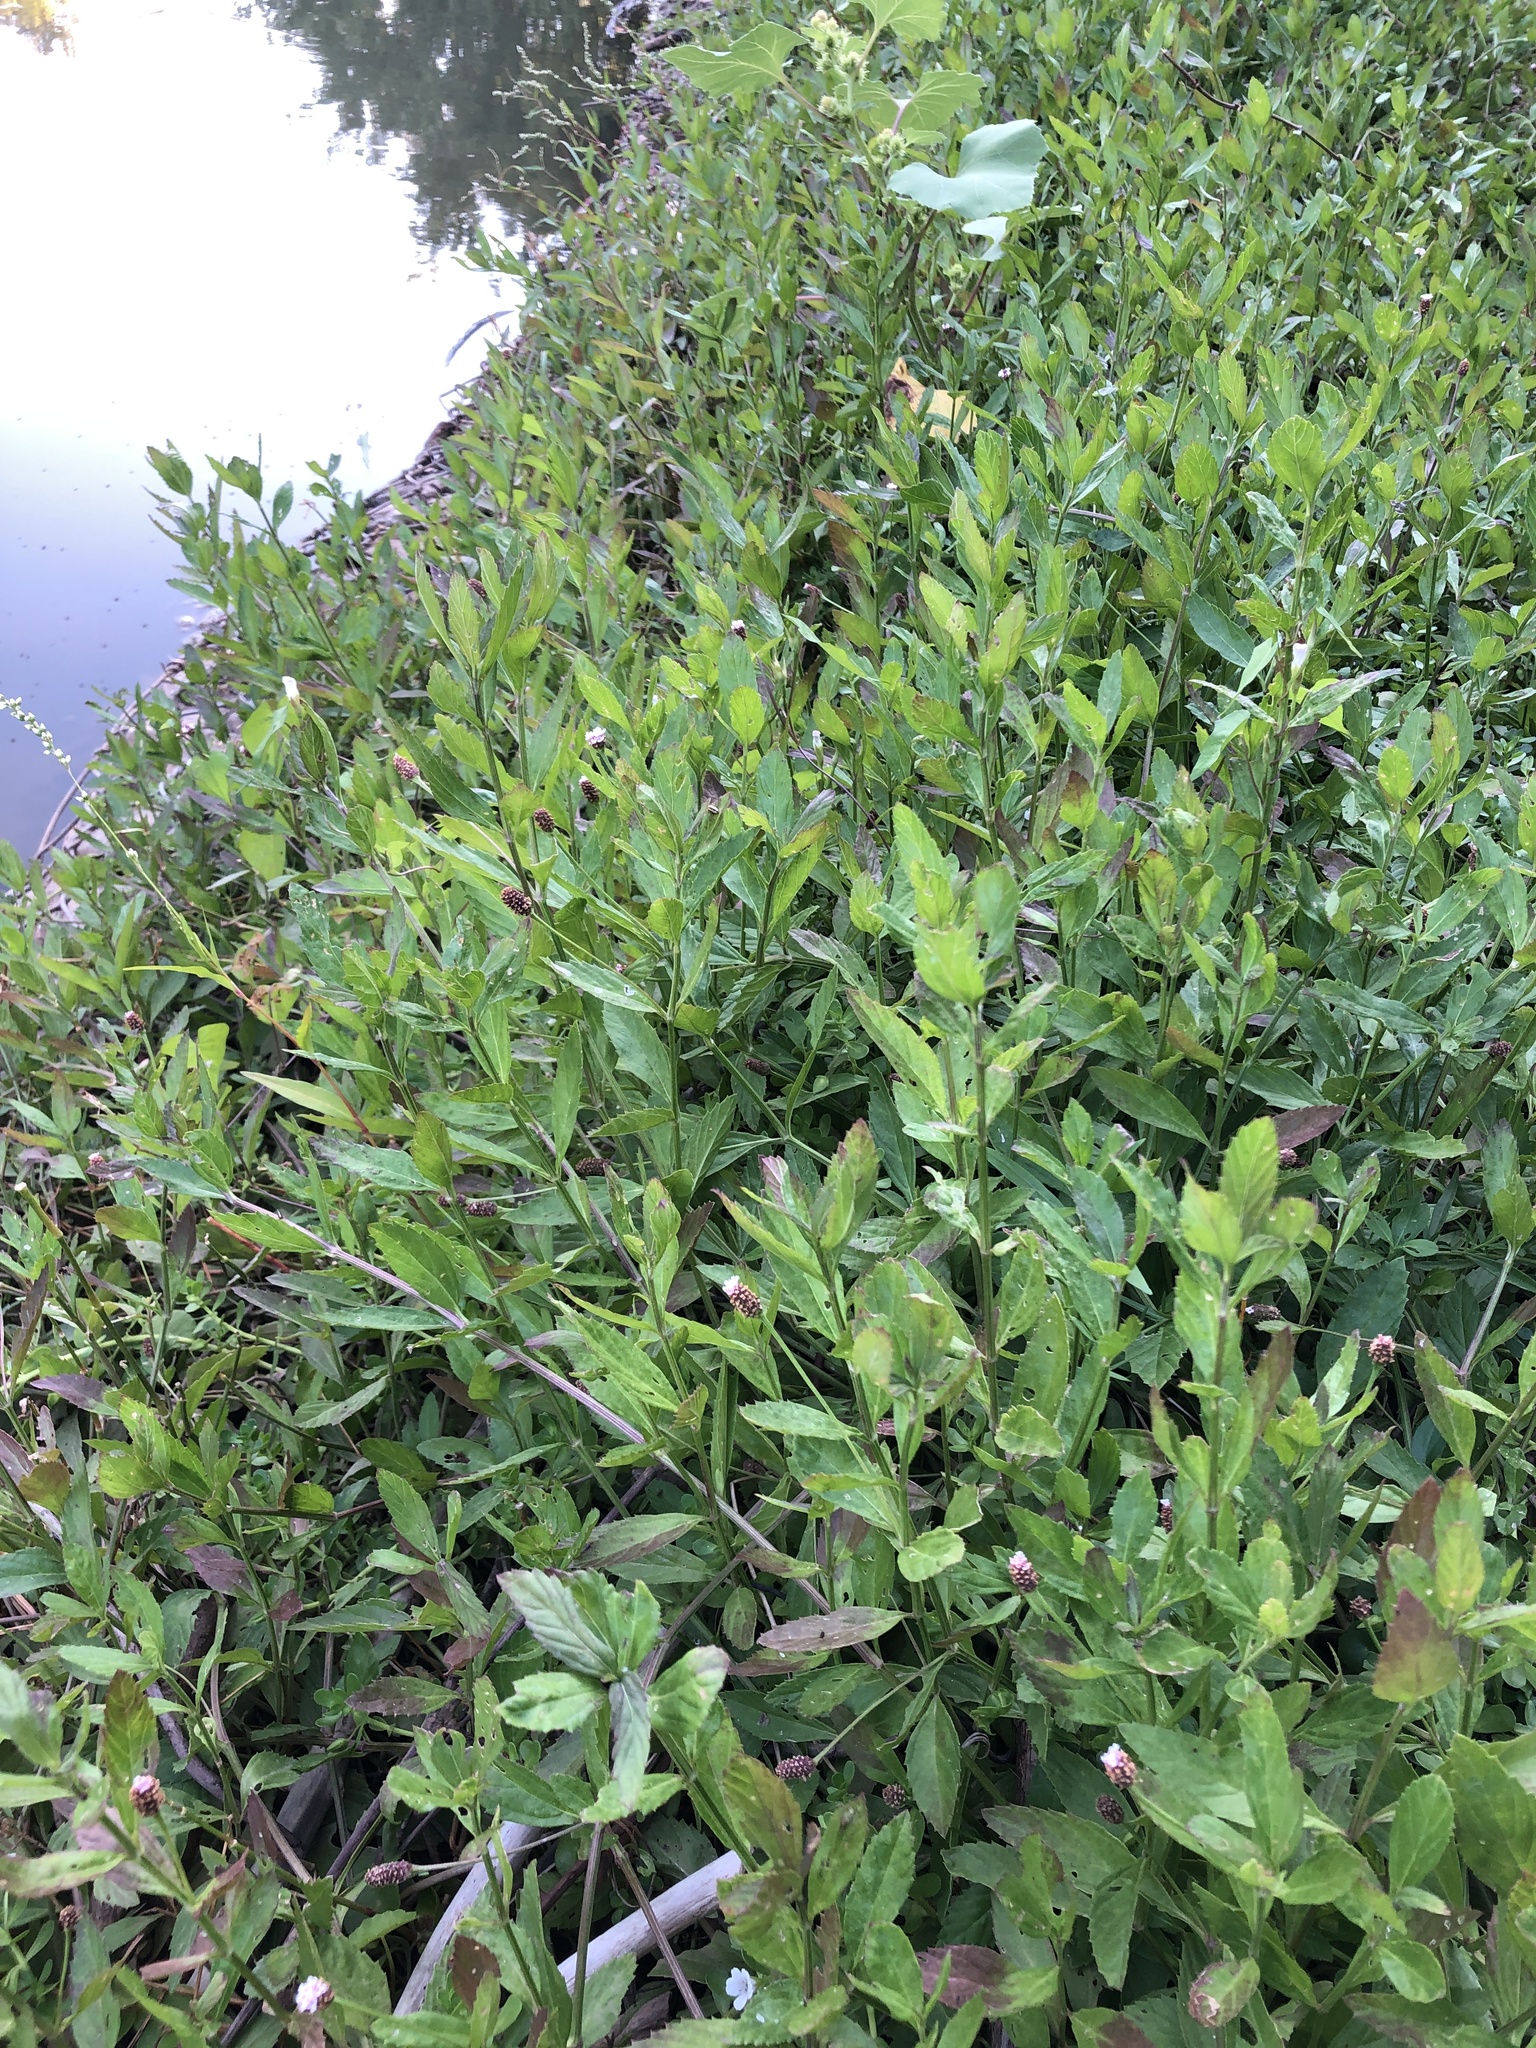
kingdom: Plantae
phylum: Tracheophyta
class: Magnoliopsida
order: Lamiales
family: Verbenaceae
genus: Phyla
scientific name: Phyla lanceolata
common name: Northern fogfruit
